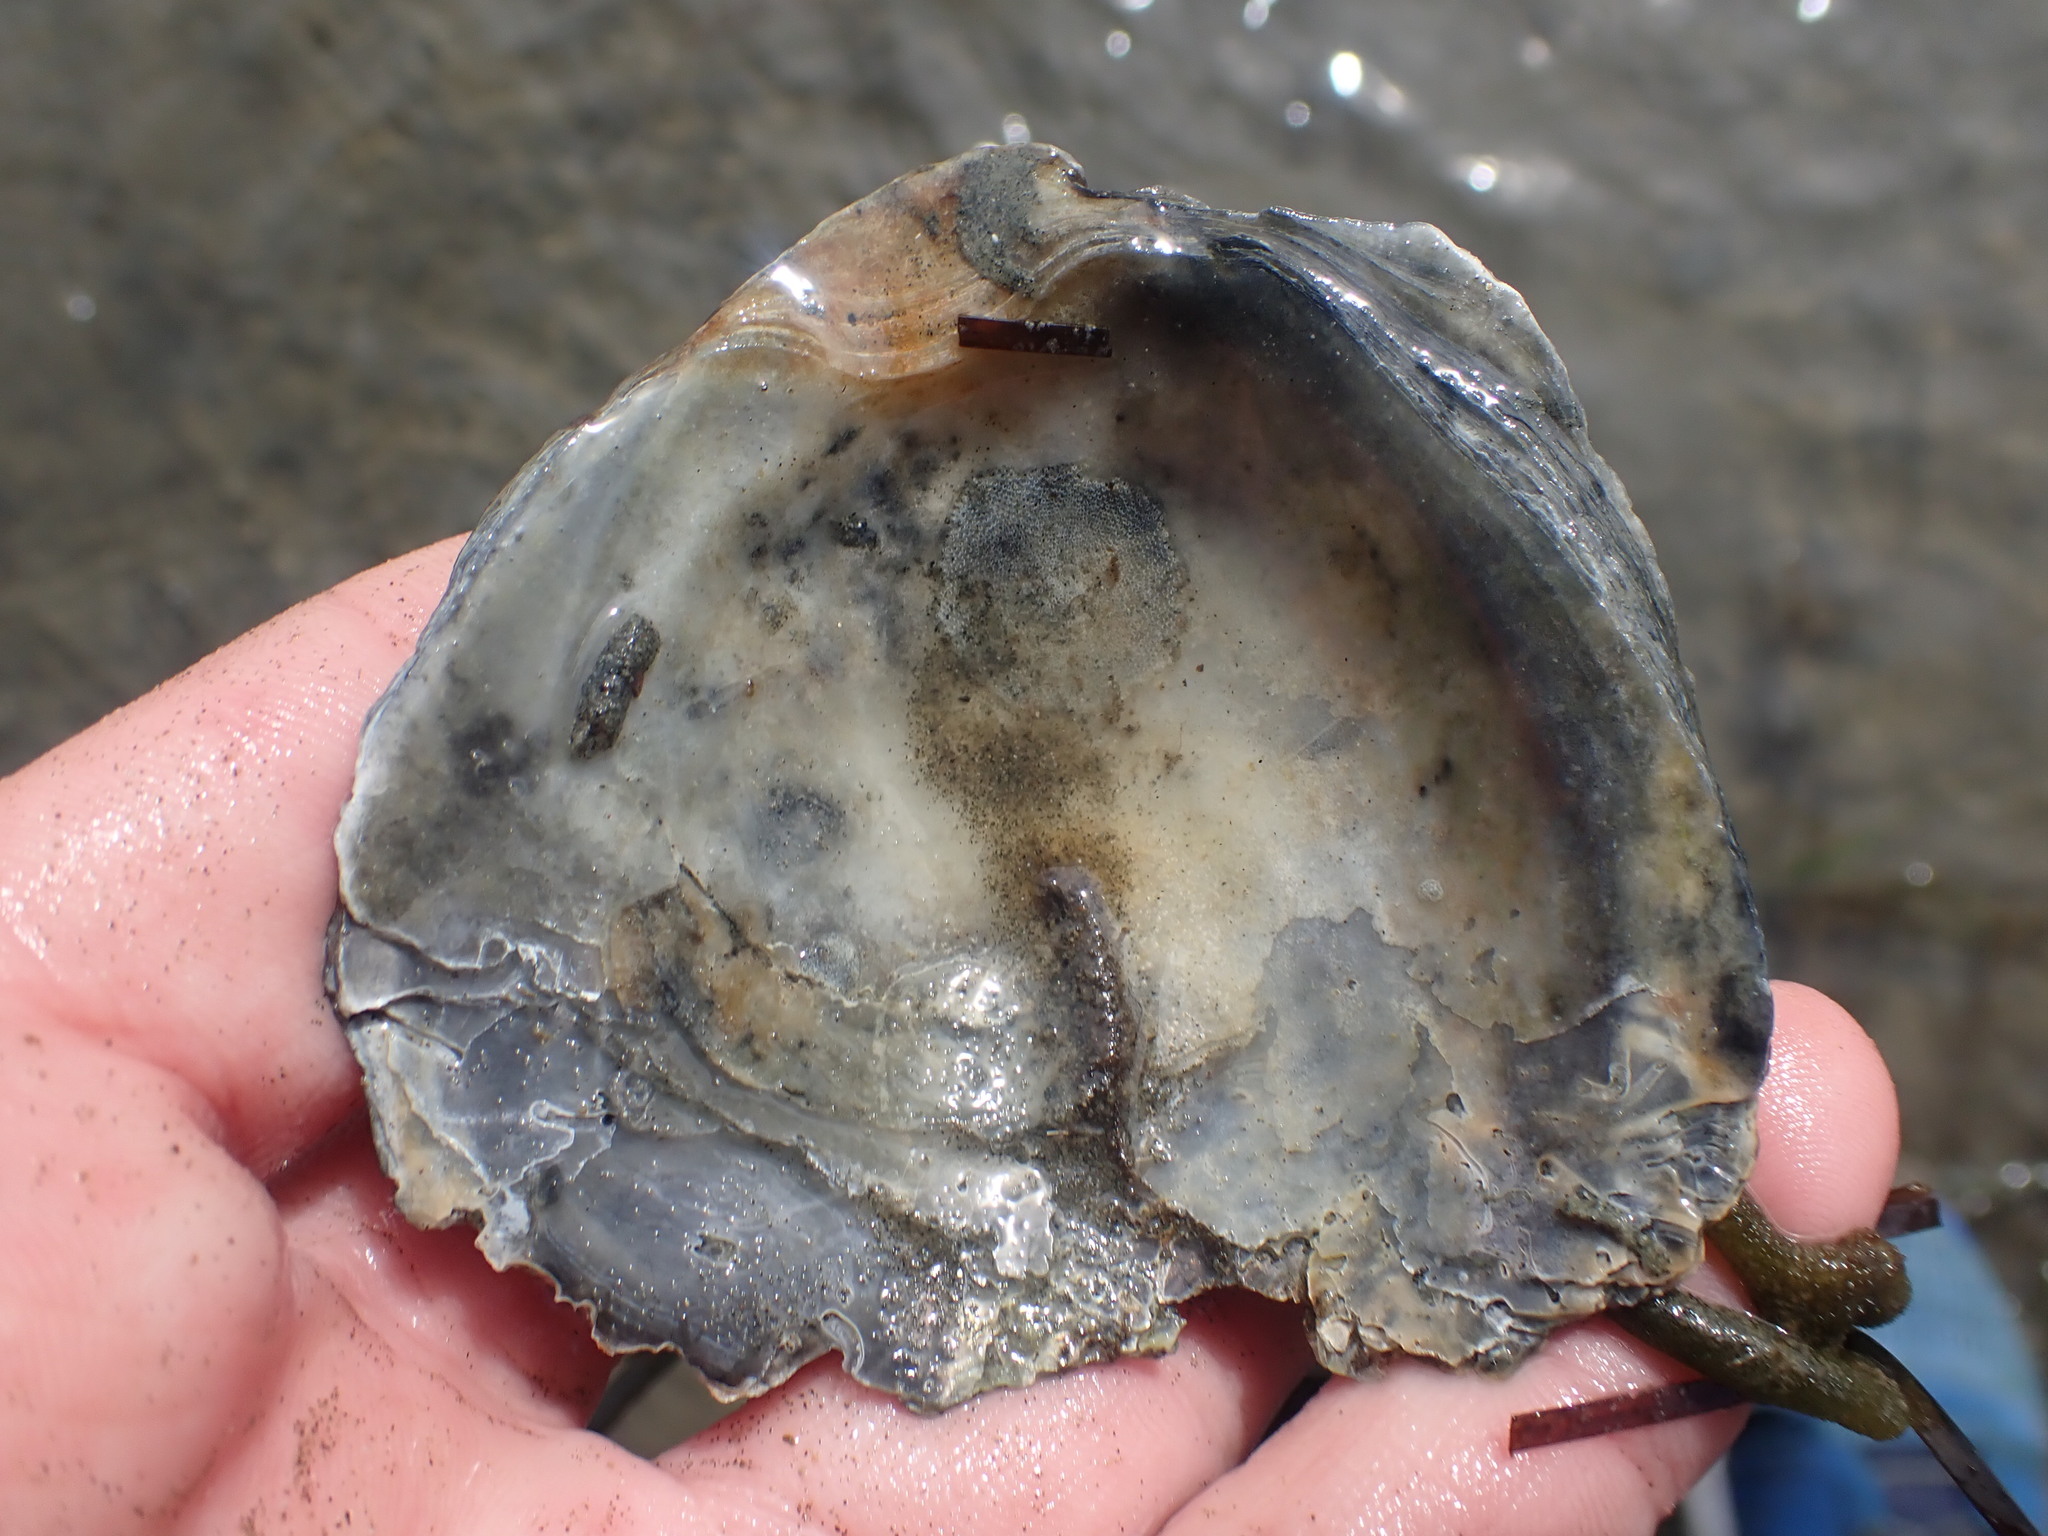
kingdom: Animalia
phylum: Mollusca
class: Bivalvia
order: Ostreida
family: Ostreidae
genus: Ostrea
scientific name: Ostrea chilensis
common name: Chilean oyster
